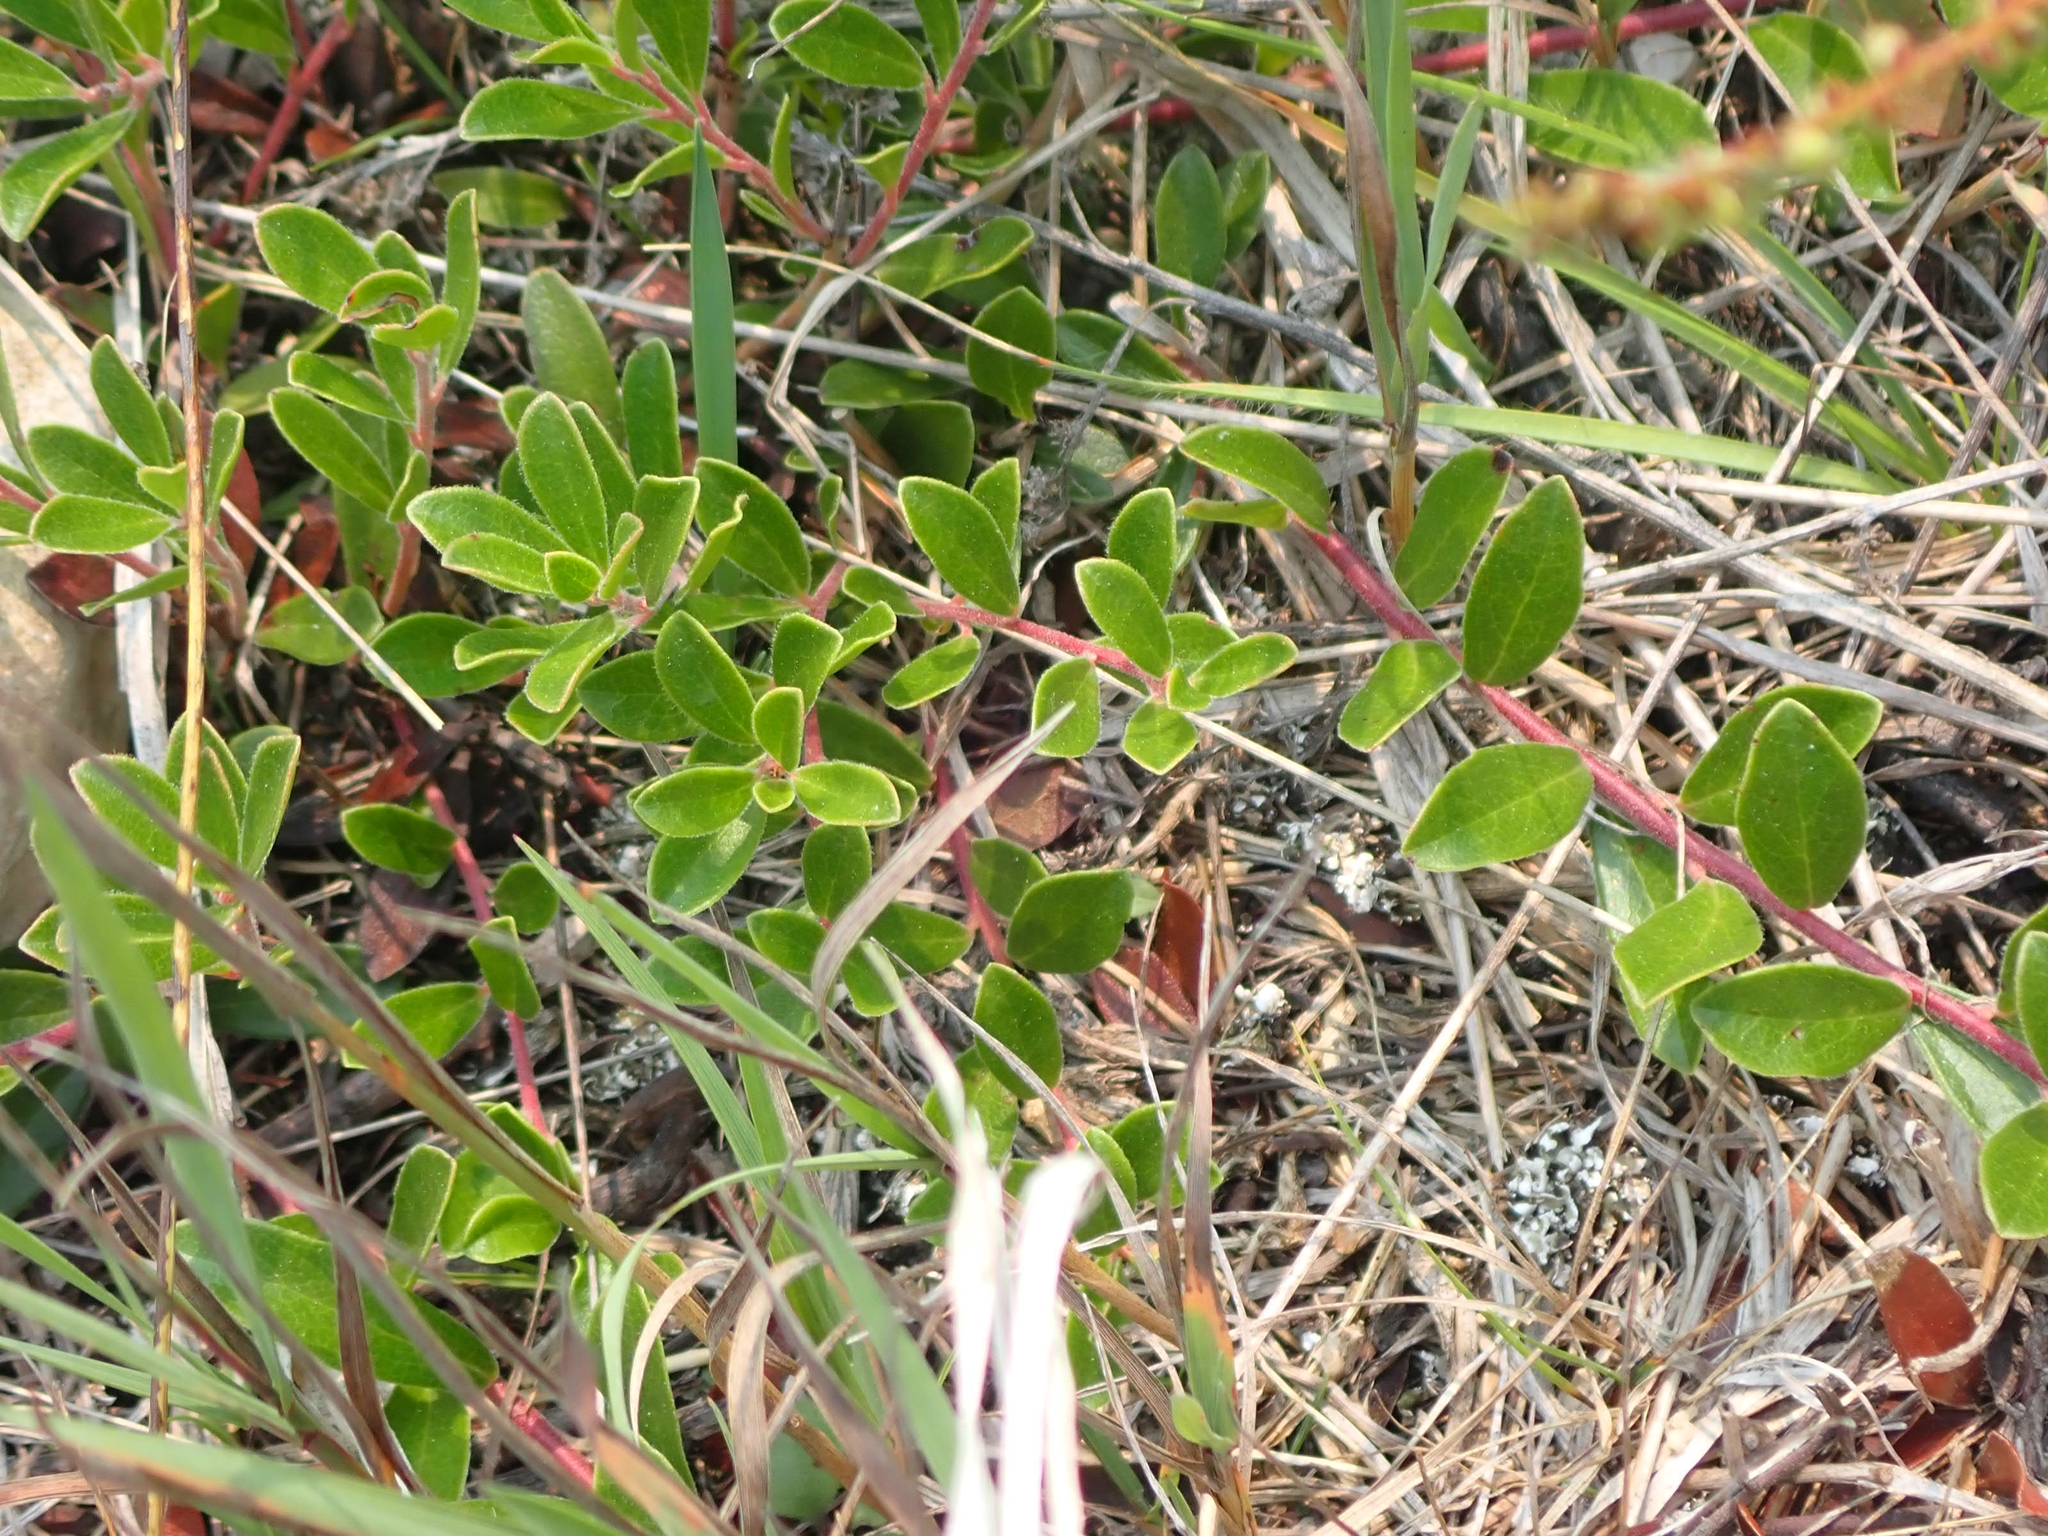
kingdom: Plantae
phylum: Tracheophyta
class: Magnoliopsida
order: Ericales
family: Ericaceae
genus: Arctostaphylos
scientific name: Arctostaphylos uva-ursi
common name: Bearberry
